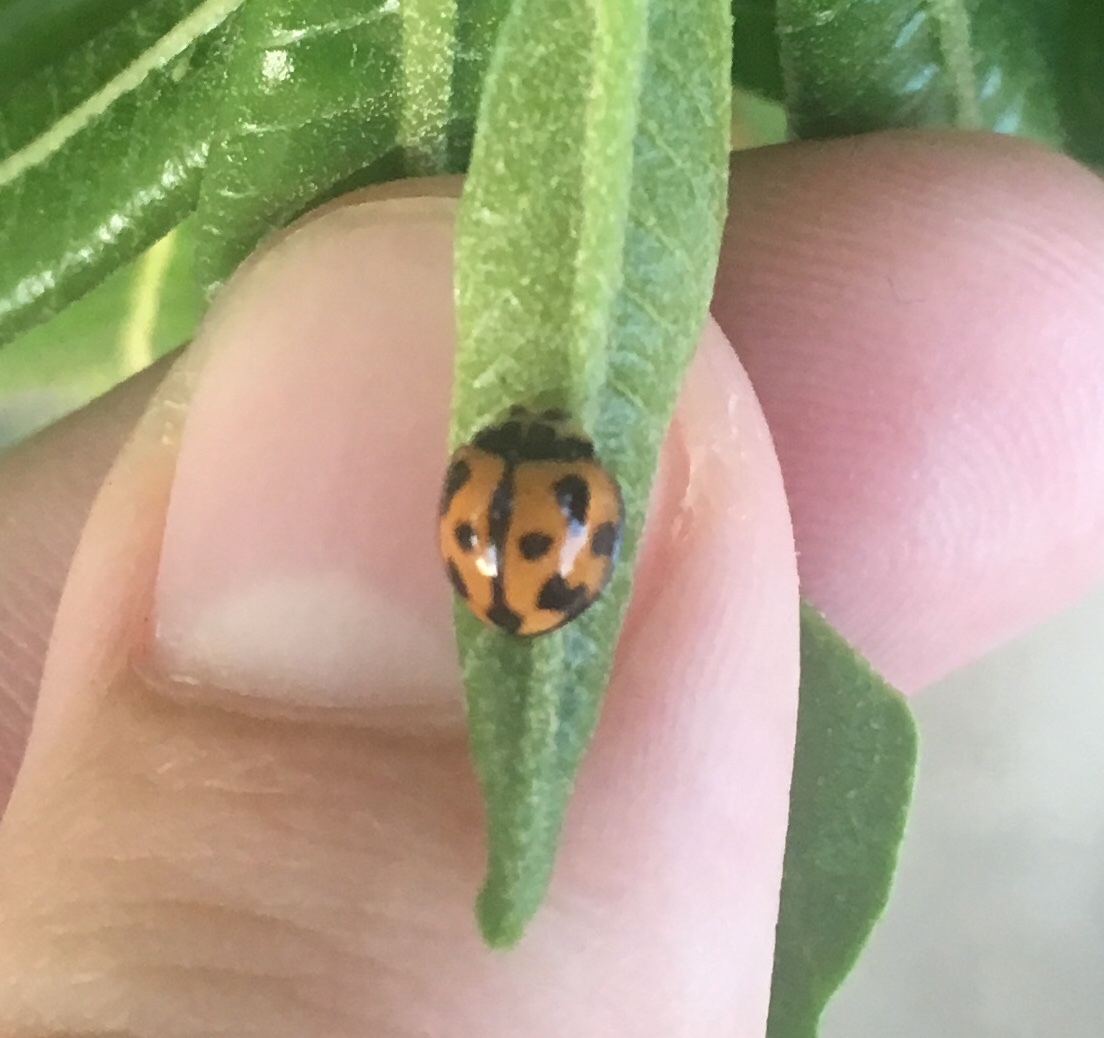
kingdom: Animalia
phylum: Arthropoda
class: Insecta
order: Coleoptera
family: Coccinellidae
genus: Coelophora
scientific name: Coelophora inaequalis
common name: Common australian lady beetle
